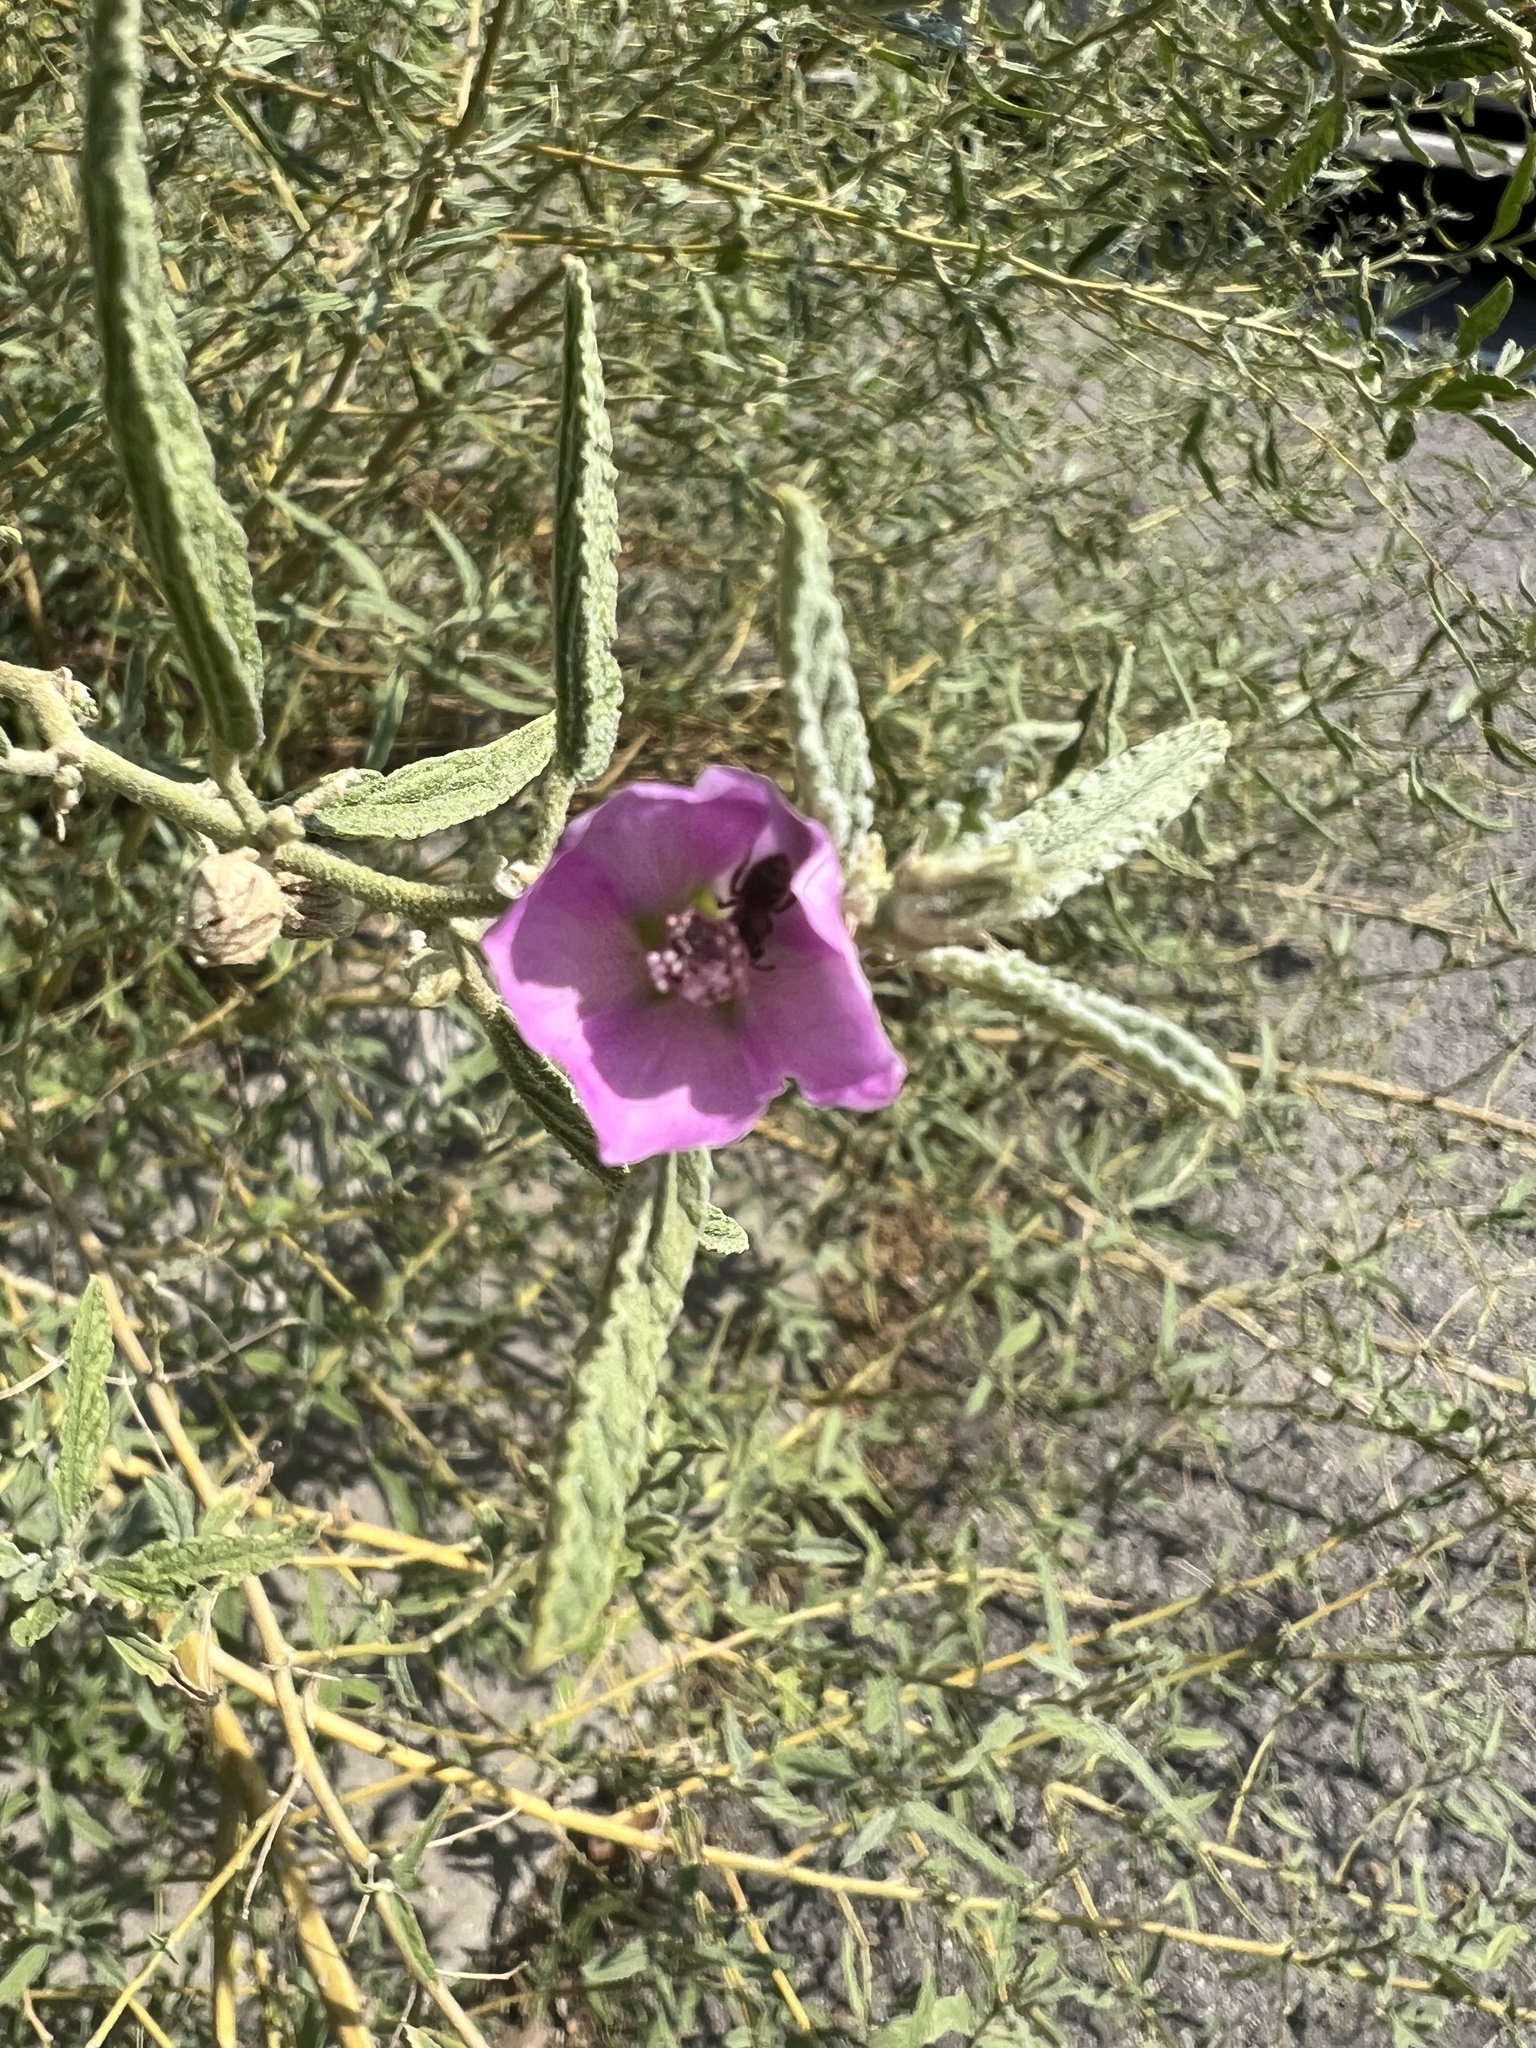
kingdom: Plantae
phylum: Tracheophyta
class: Magnoliopsida
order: Malvales
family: Malvaceae
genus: Sphaeralcea
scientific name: Sphaeralcea angustifolia
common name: Copper globe-mallow
